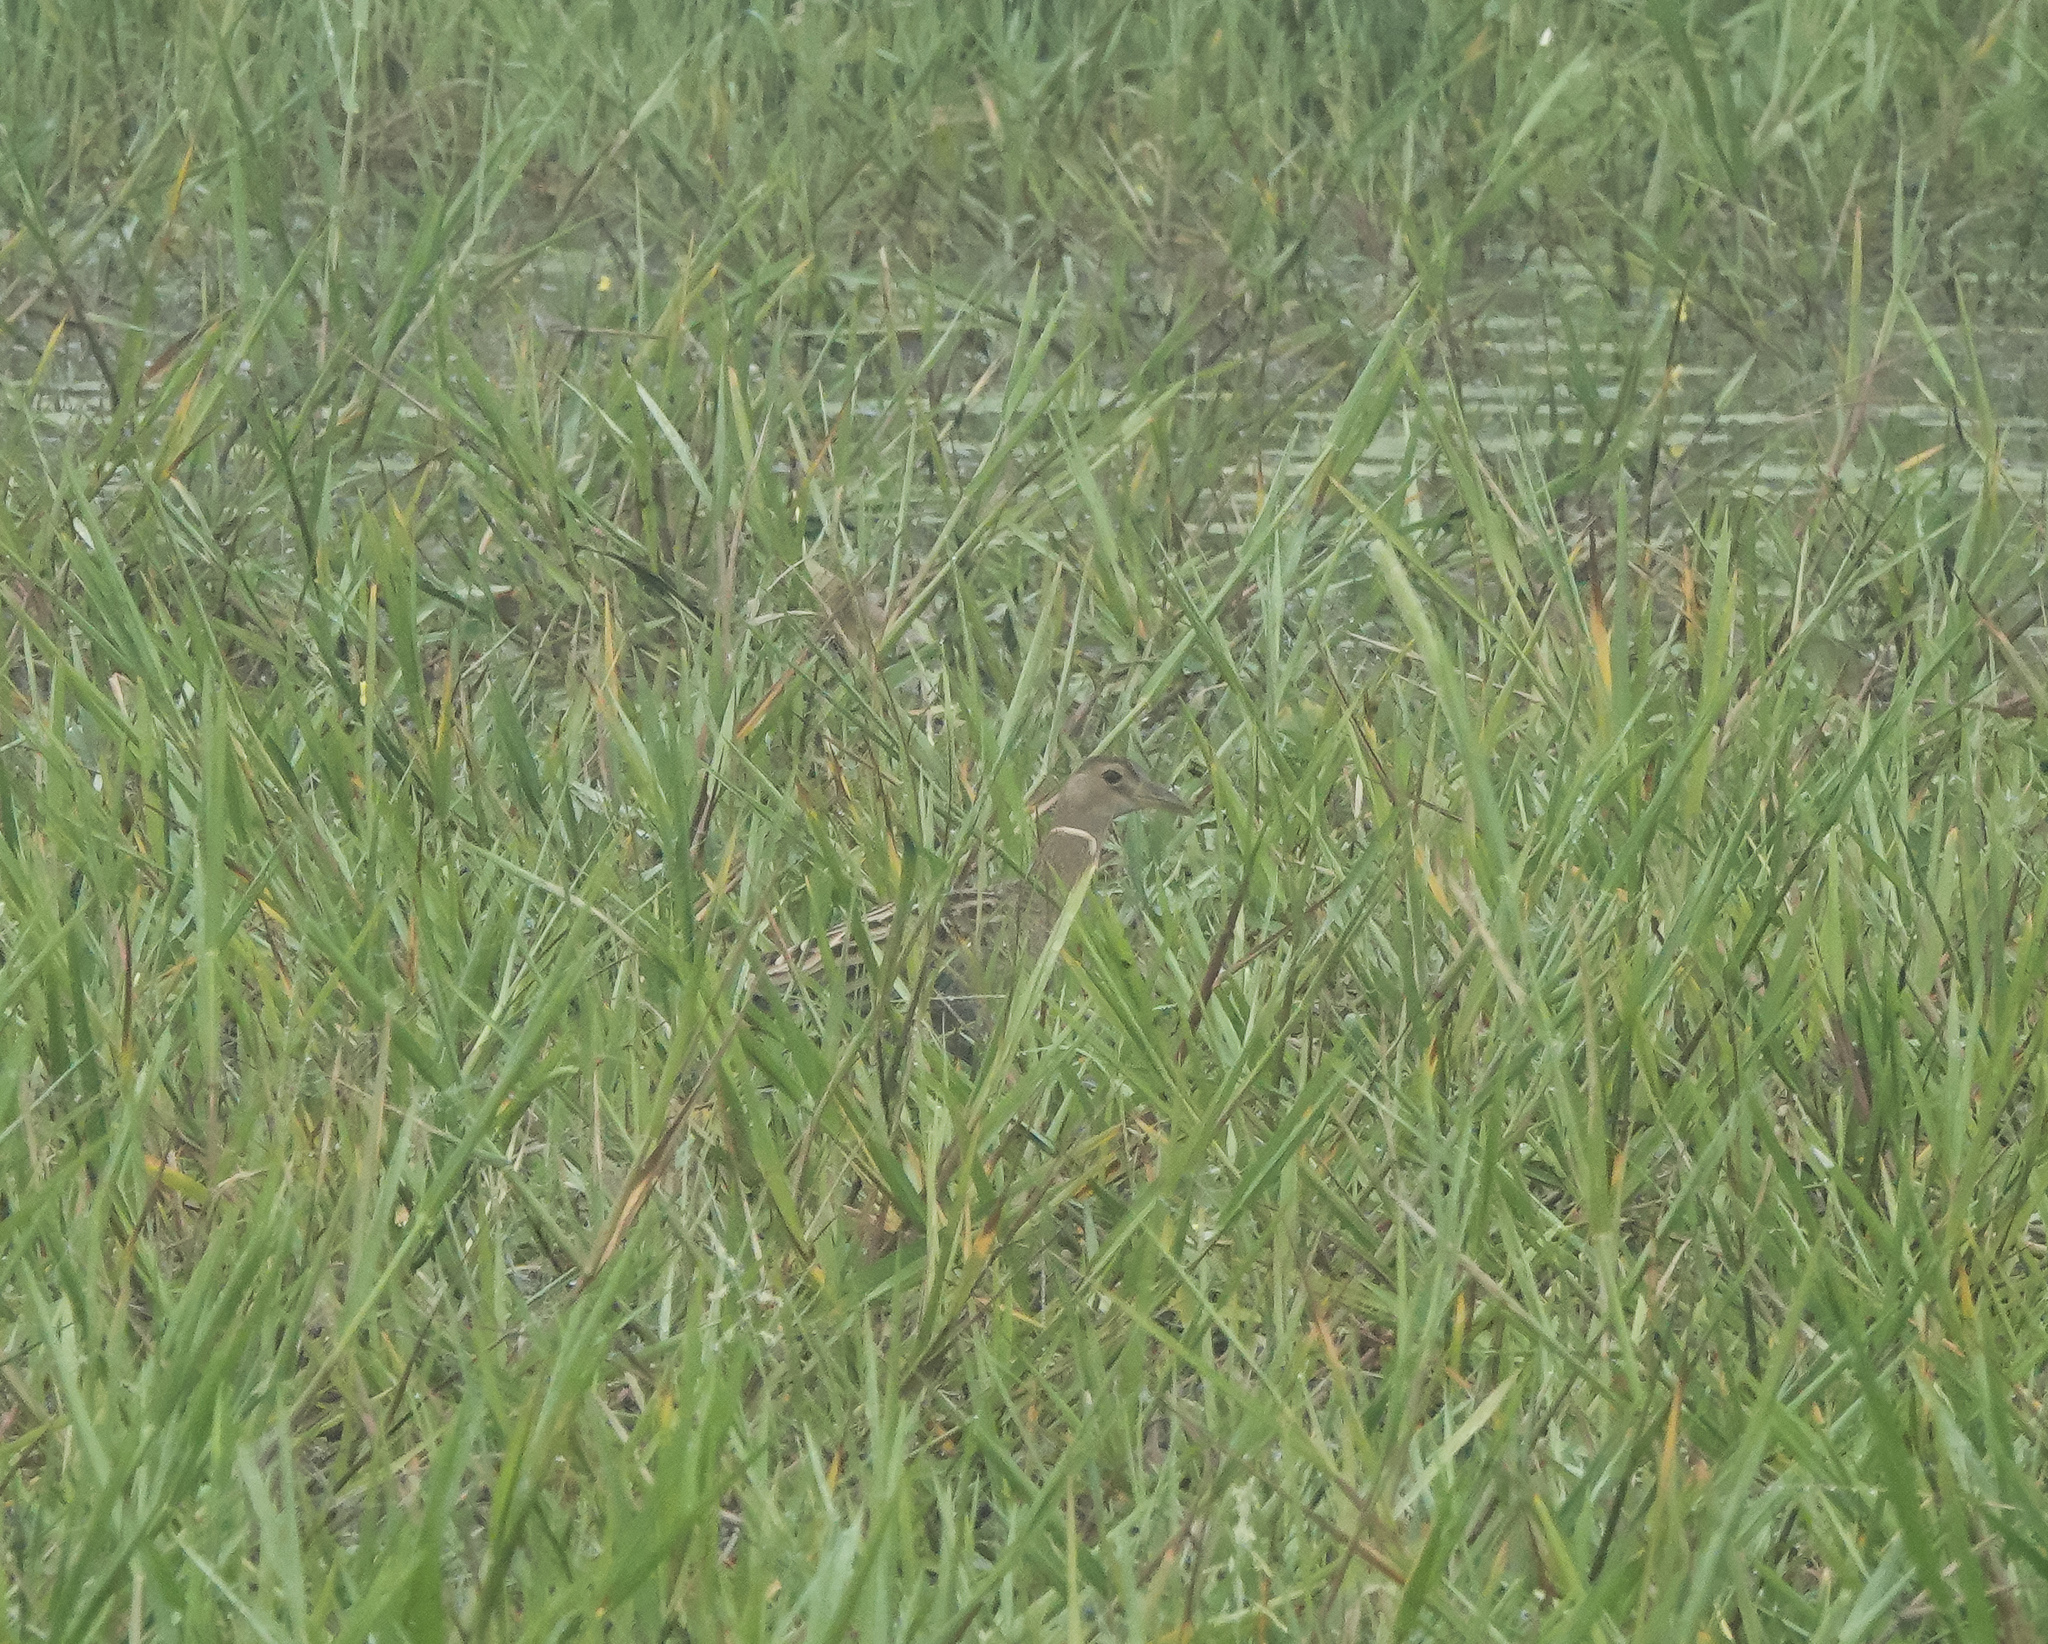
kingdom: Animalia
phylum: Chordata
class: Aves
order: Gruiformes
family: Rallidae
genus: Gallicrex
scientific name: Gallicrex cinerea
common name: Watercock
